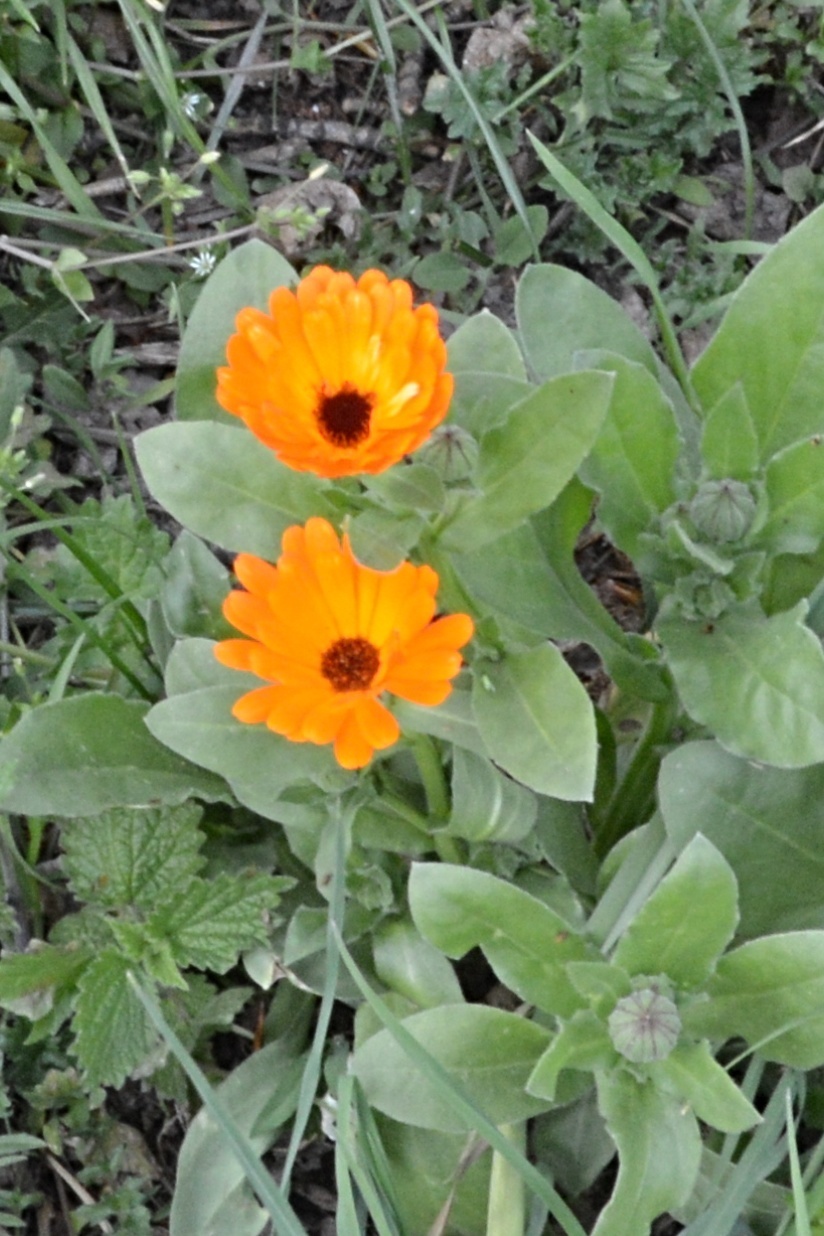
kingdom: Plantae
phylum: Tracheophyta
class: Magnoliopsida
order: Asterales
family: Asteraceae
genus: Calendula
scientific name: Calendula officinalis
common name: Pot marigold
